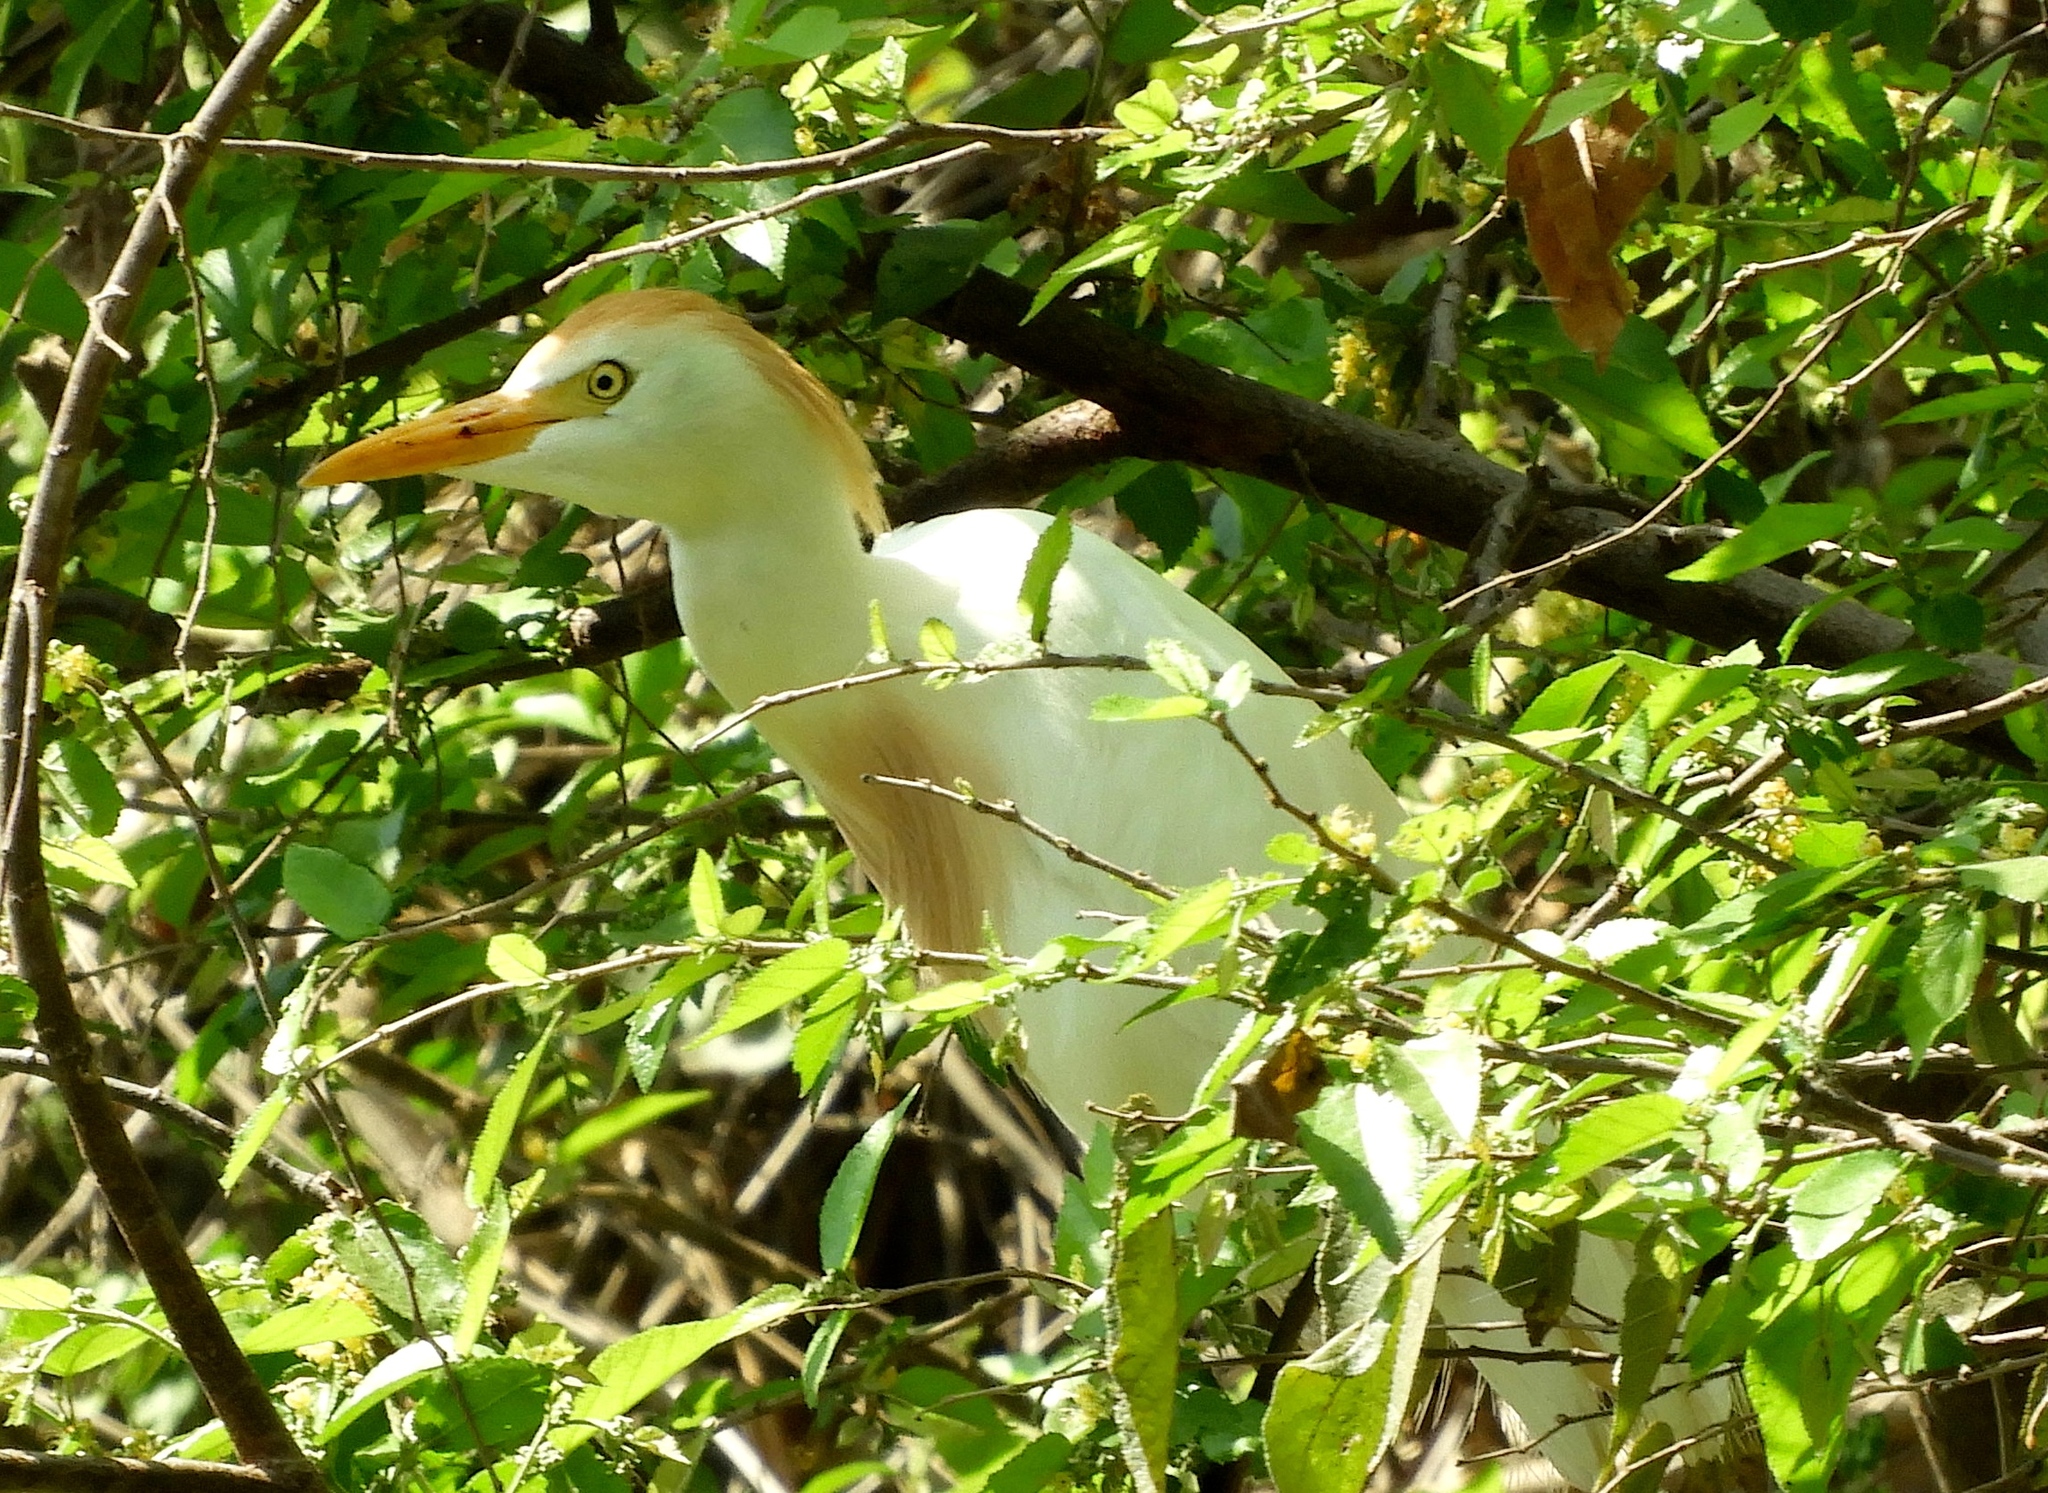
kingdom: Animalia
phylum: Chordata
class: Aves
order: Pelecaniformes
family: Ardeidae
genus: Bubulcus
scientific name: Bubulcus ibis
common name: Cattle egret
